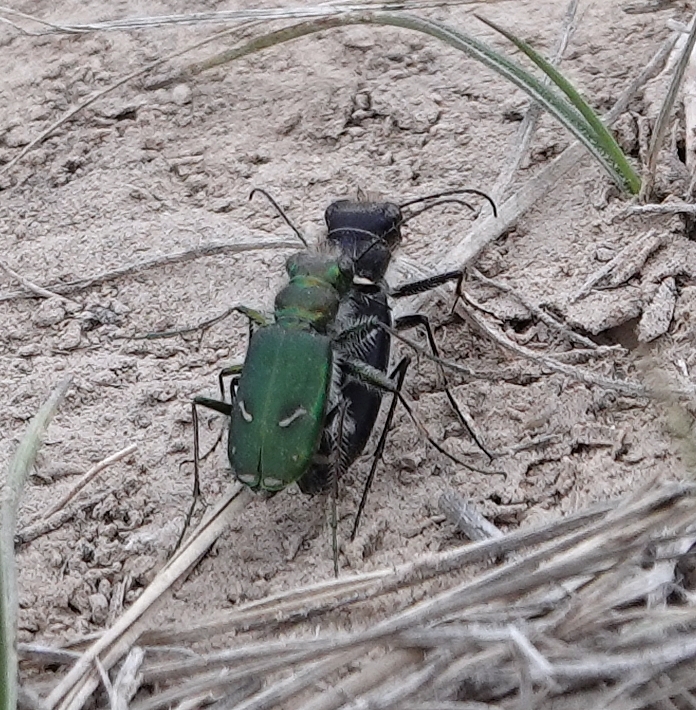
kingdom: Animalia
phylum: Arthropoda
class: Insecta
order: Coleoptera
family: Carabidae
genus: Cicindela
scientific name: Cicindela purpurea
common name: Cow path tiger beetle
